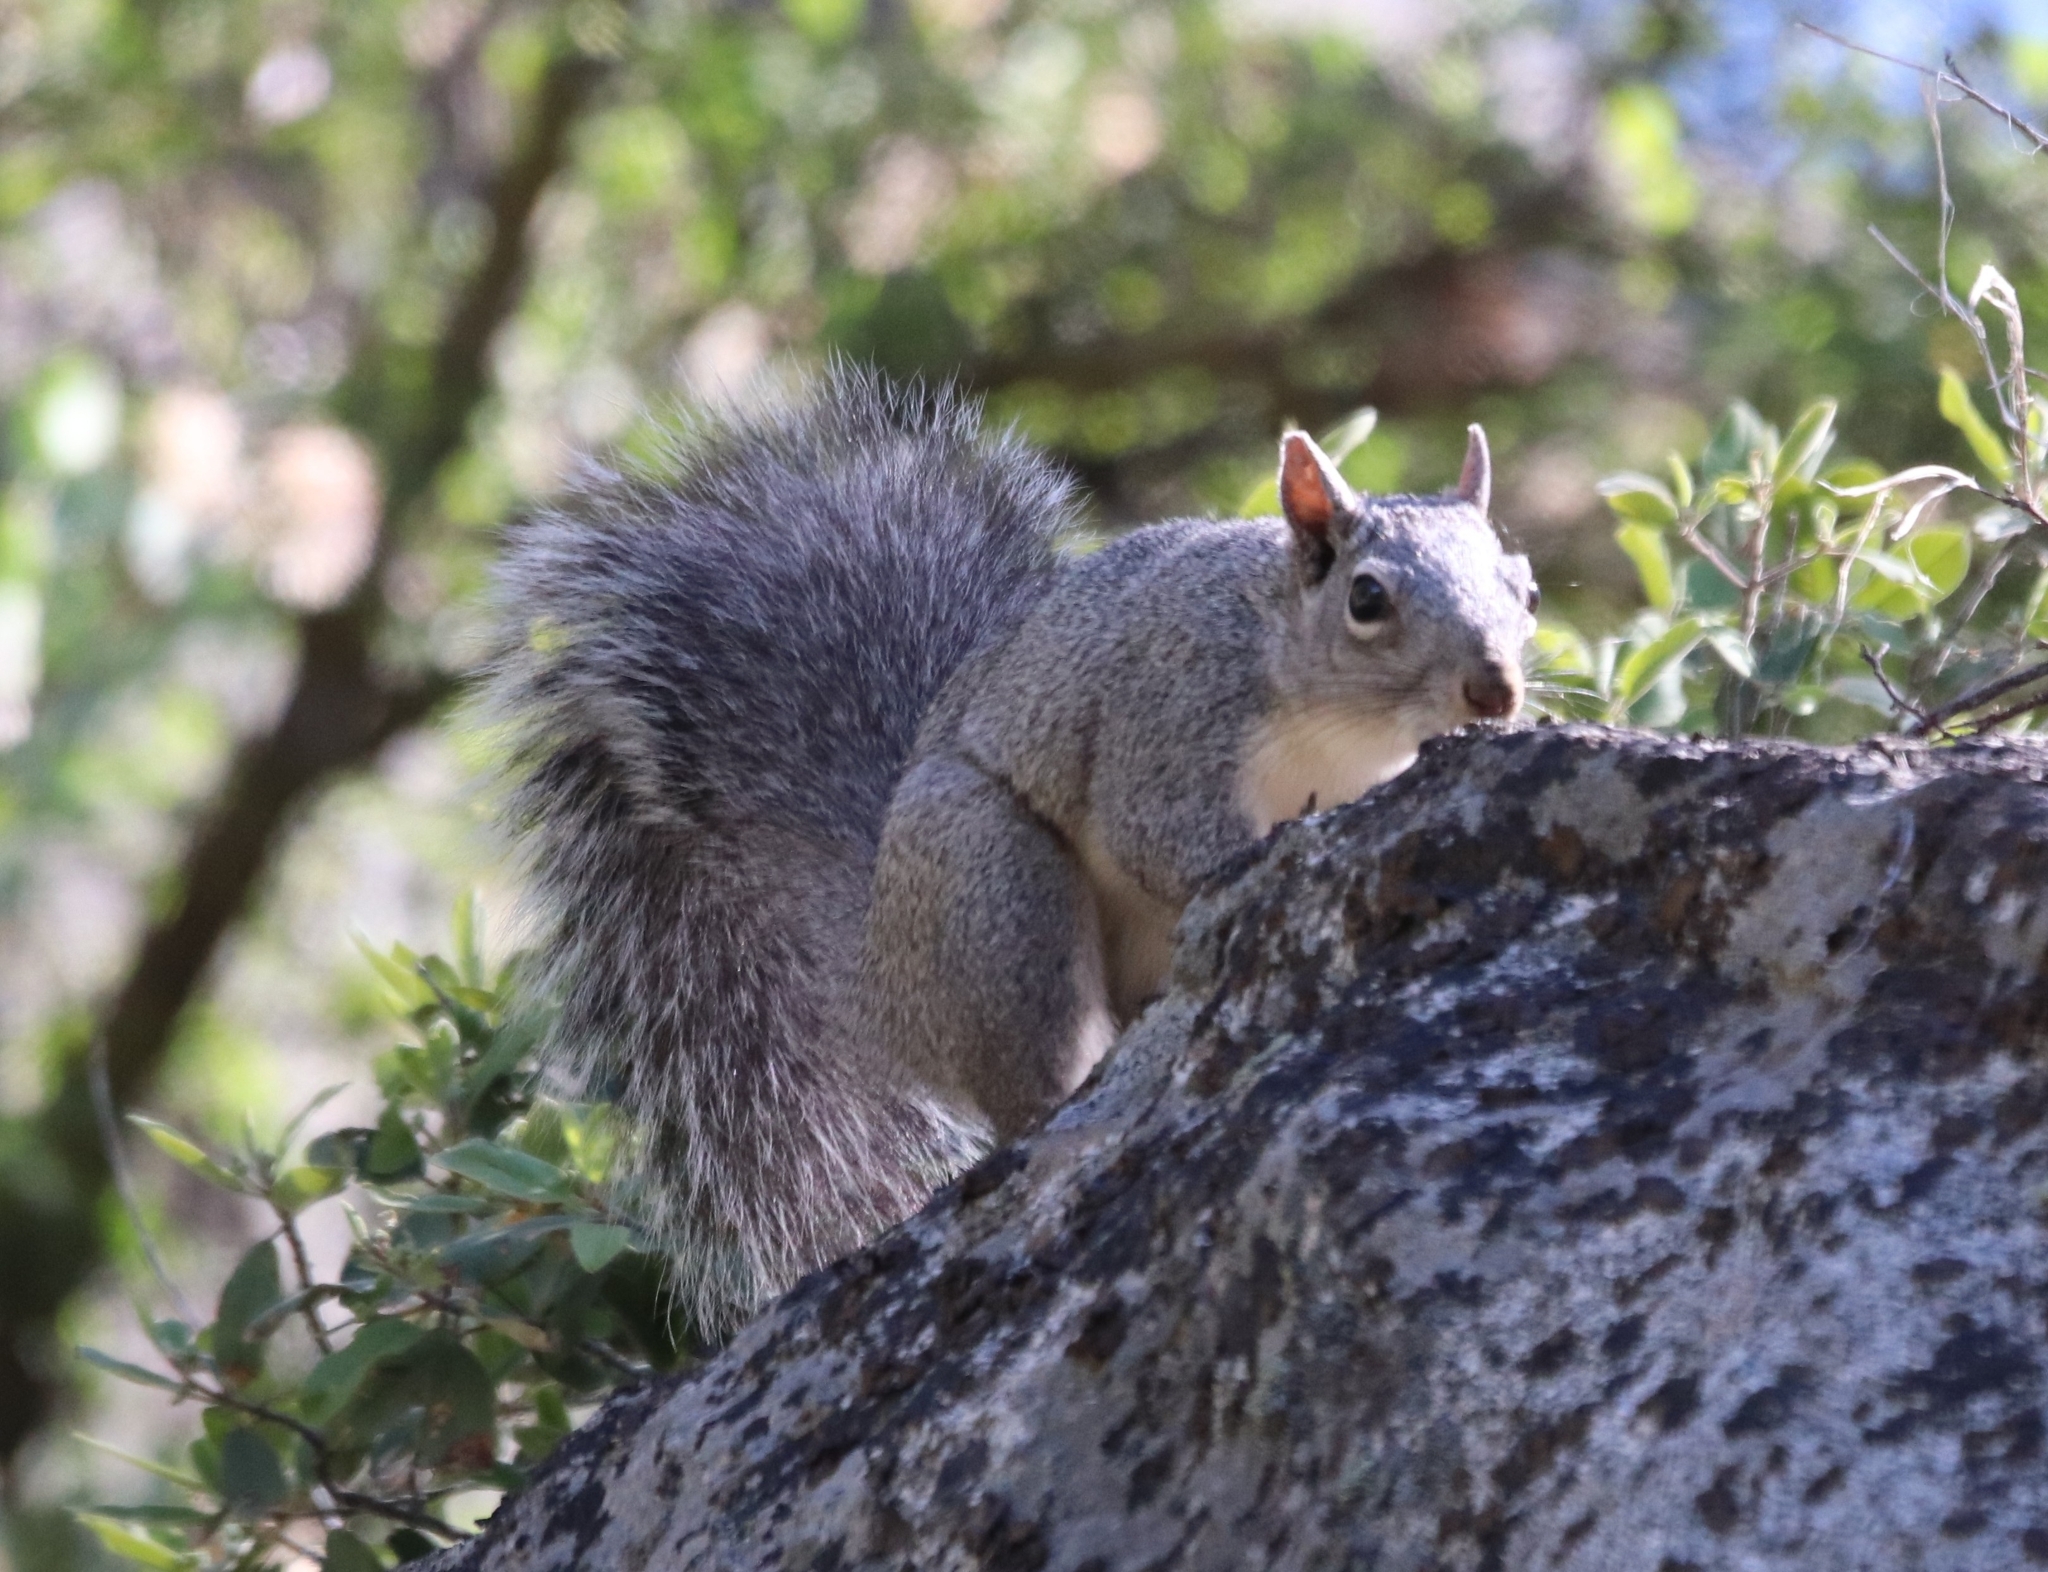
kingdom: Animalia
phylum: Chordata
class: Mammalia
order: Rodentia
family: Sciuridae
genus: Sciurus
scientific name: Sciurus griseus
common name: Western gray squirrel
